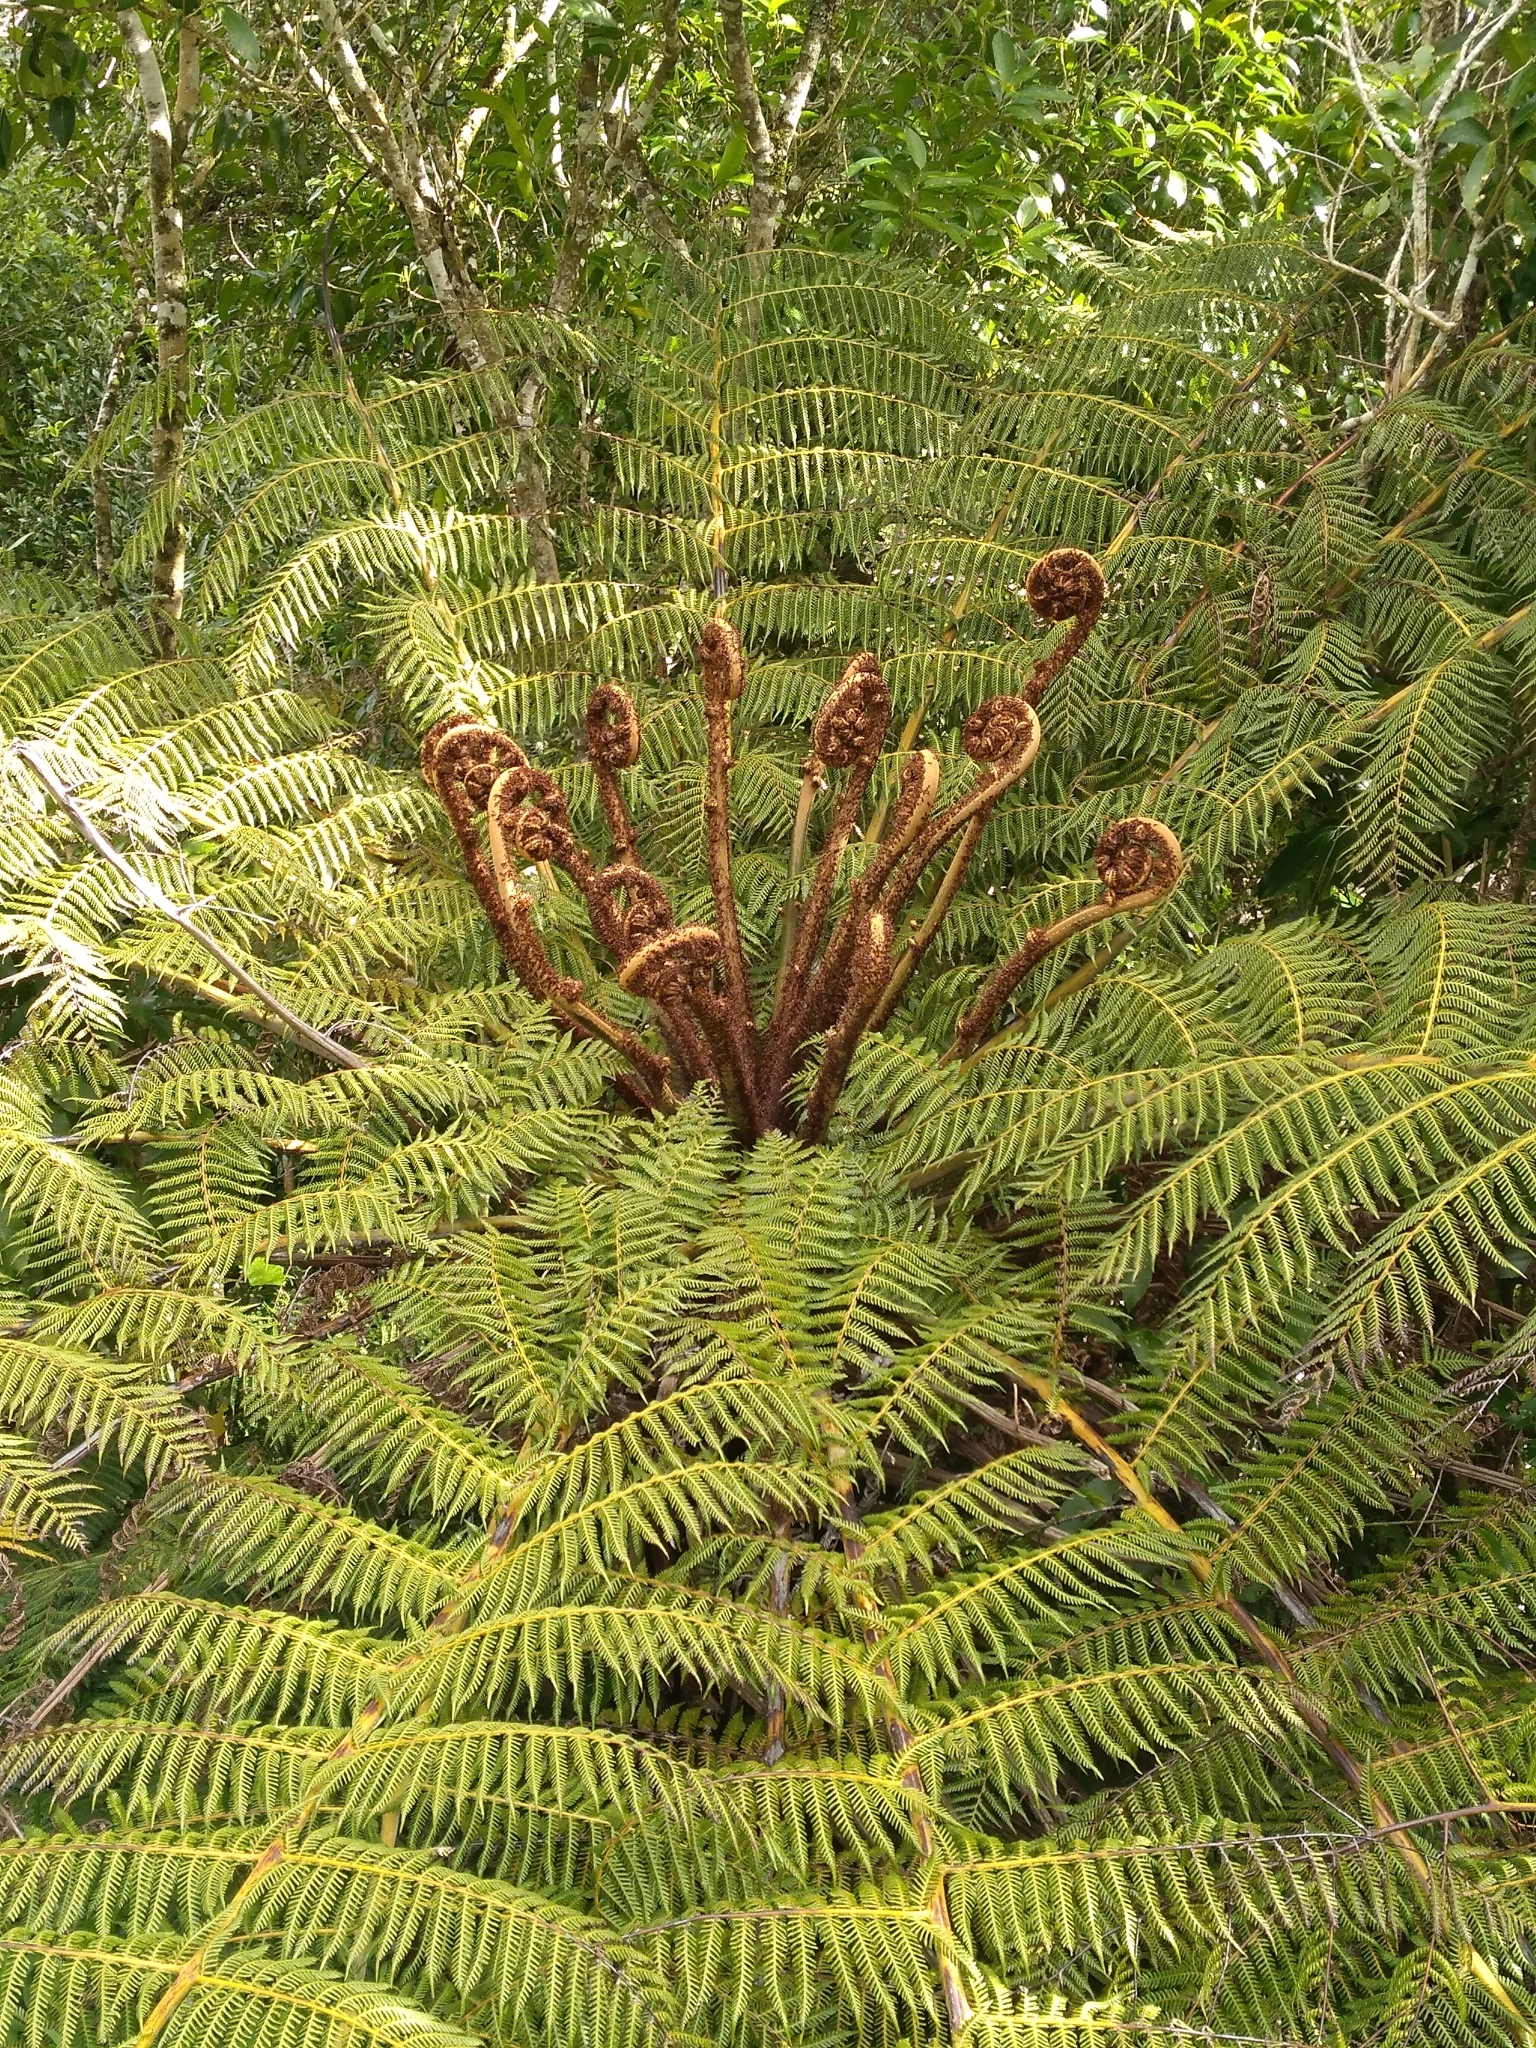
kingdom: Plantae
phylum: Tracheophyta
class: Polypodiopsida
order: Cyatheales
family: Cyatheaceae
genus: Alsophila
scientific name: Alsophila dealbata
